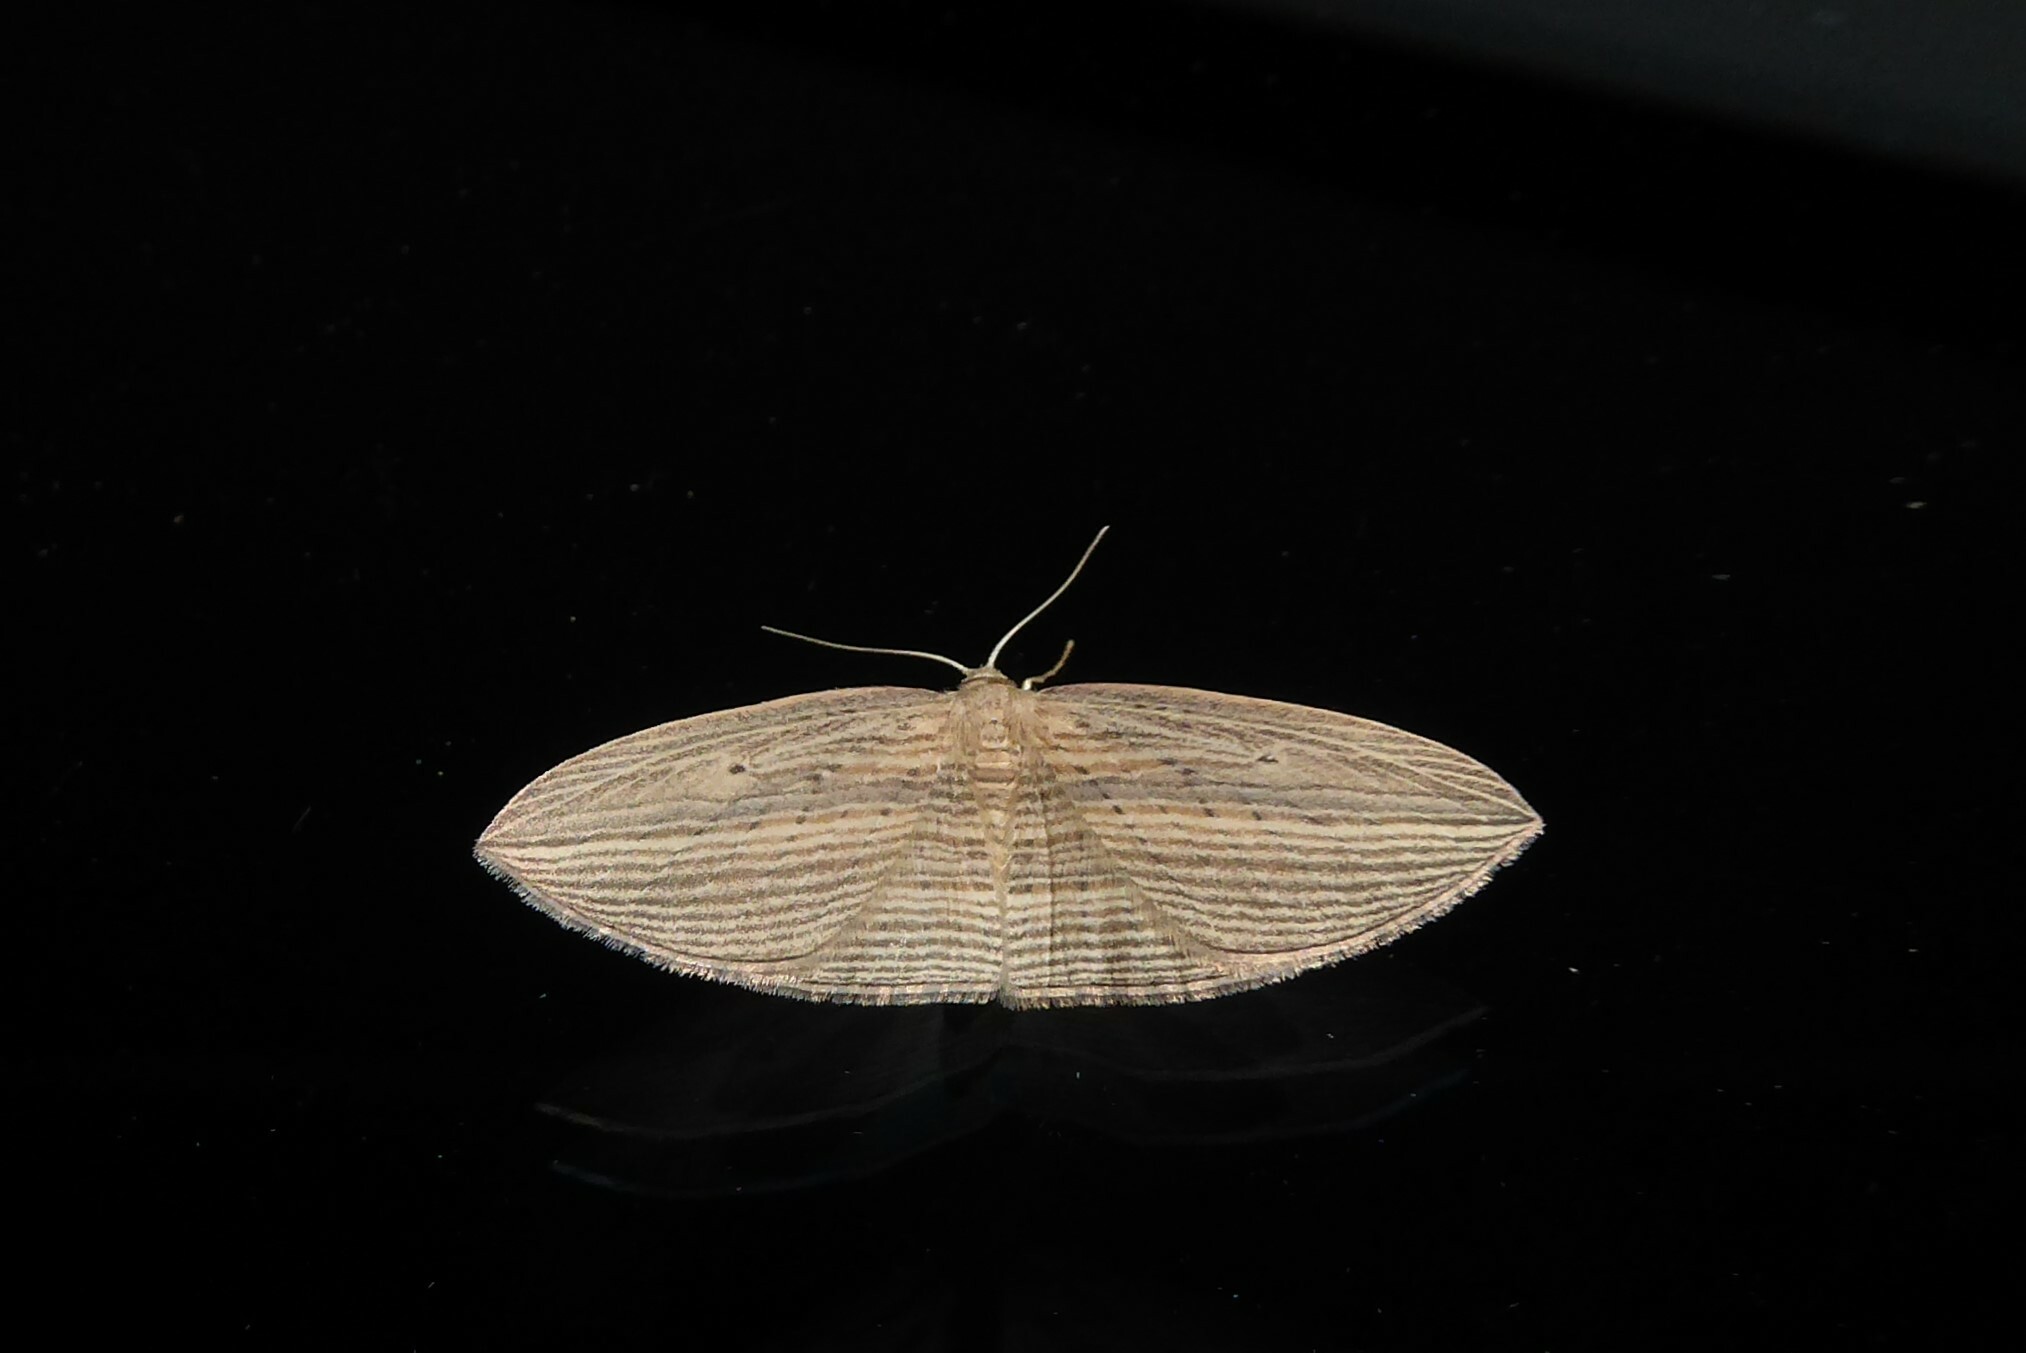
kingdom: Animalia
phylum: Arthropoda
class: Insecta
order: Lepidoptera
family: Geometridae
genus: Epiphryne
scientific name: Epiphryne verriculata
